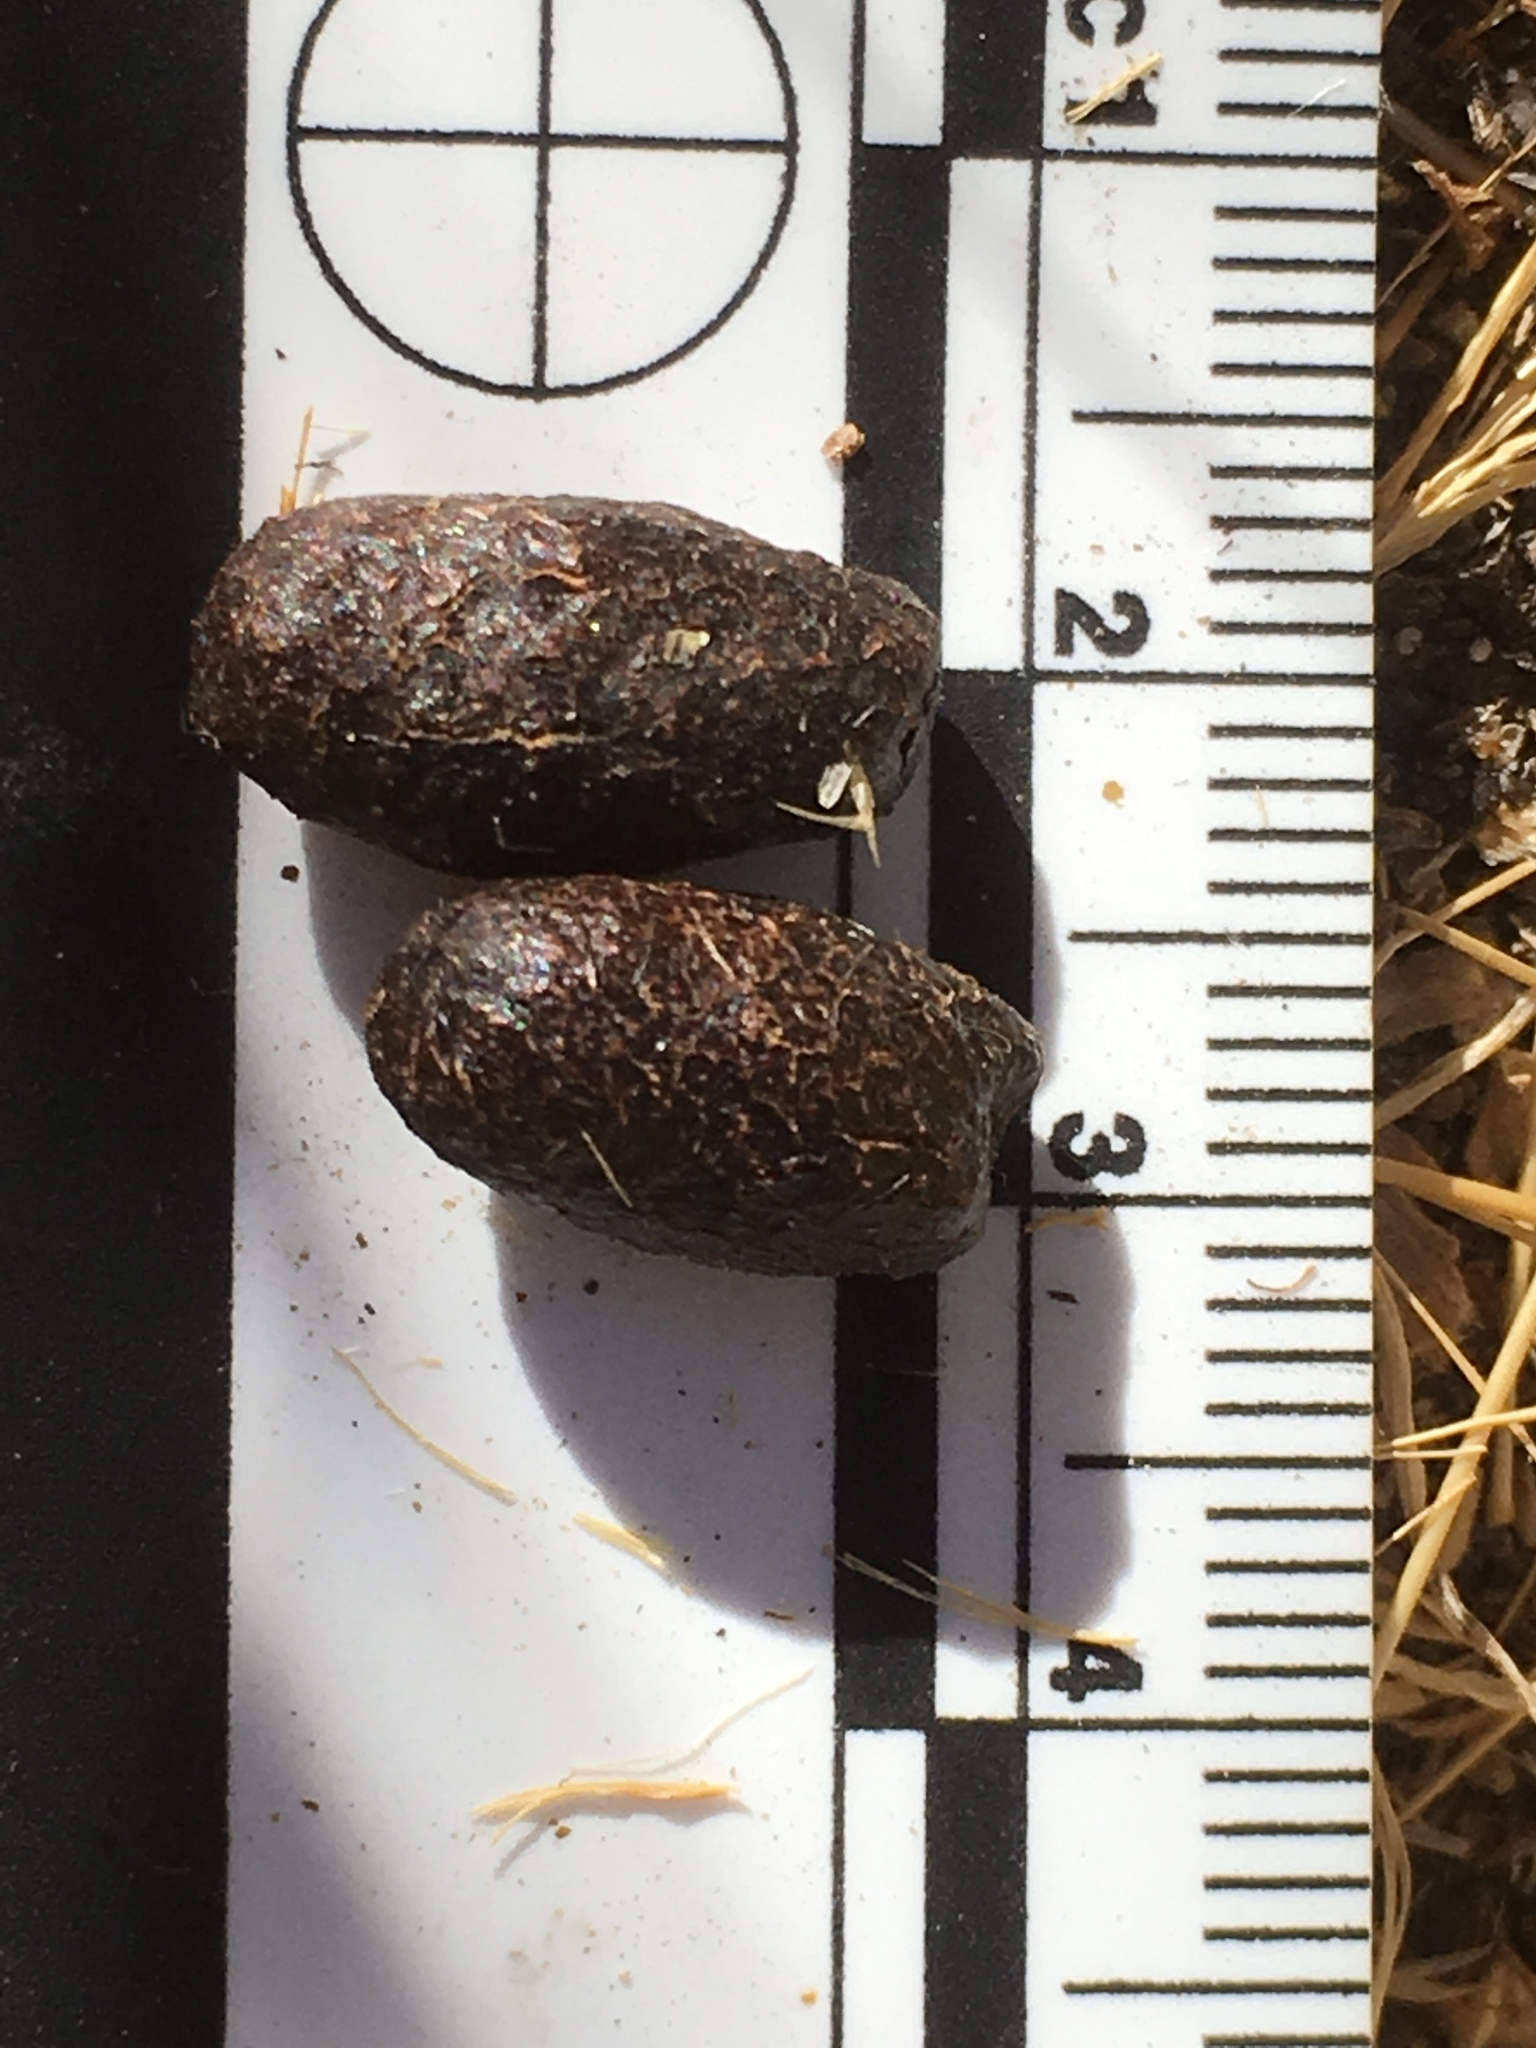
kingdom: Animalia
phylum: Chordata
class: Mammalia
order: Artiodactyla
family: Cervidae
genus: Odocoileus
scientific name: Odocoileus hemionus
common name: Mule deer
